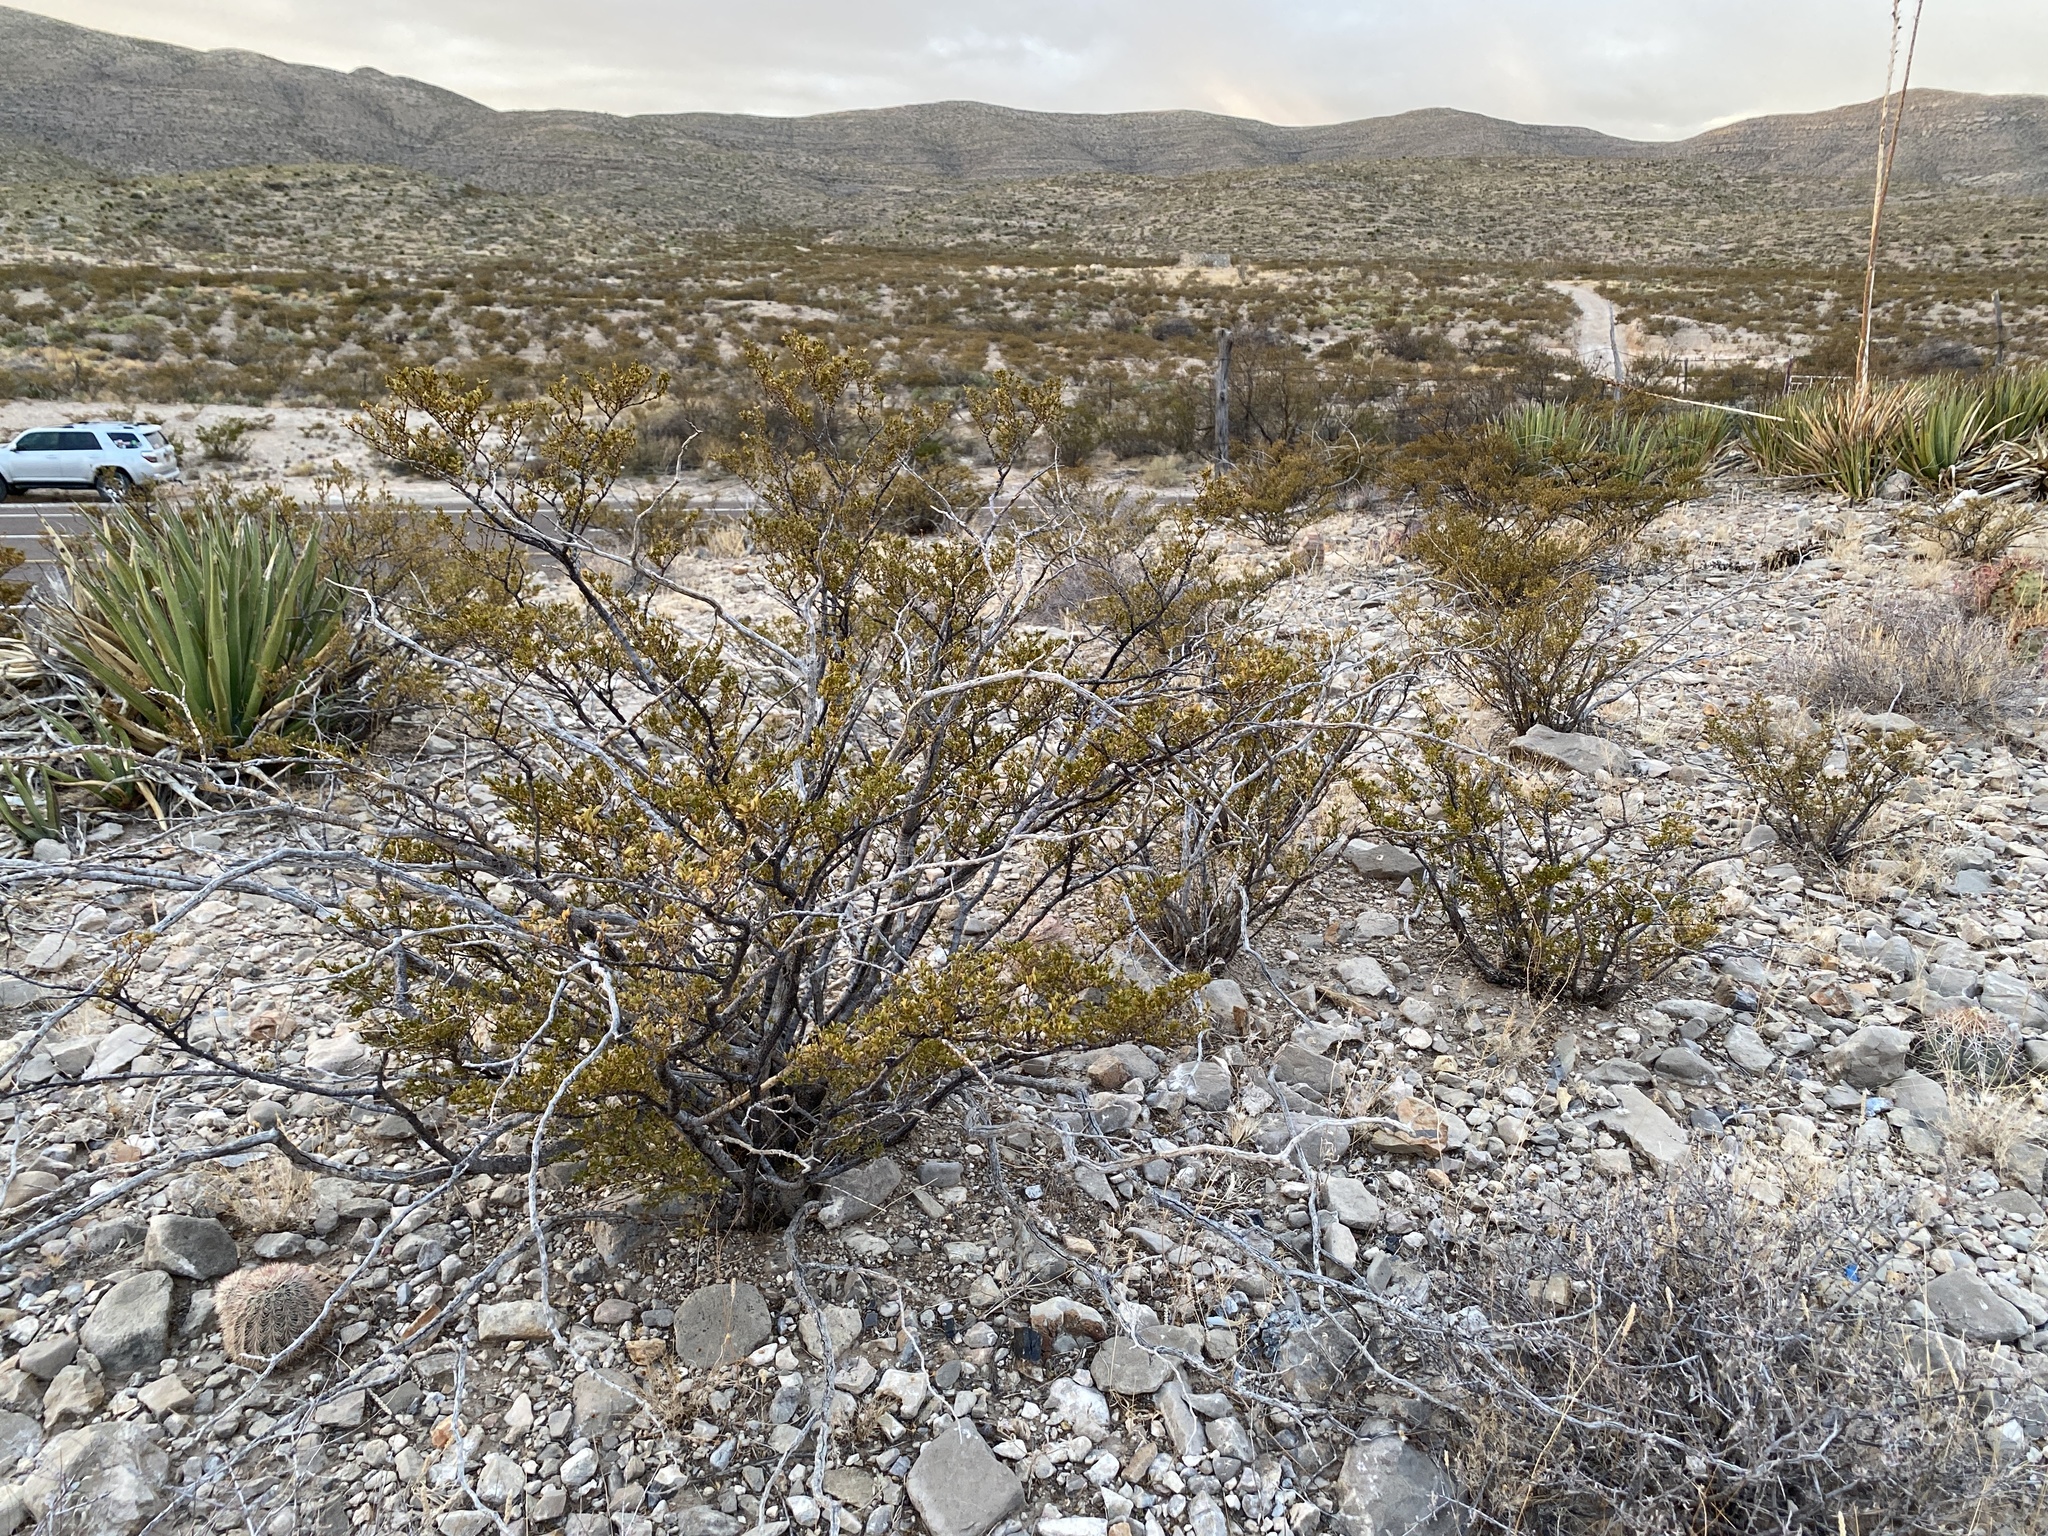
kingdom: Plantae
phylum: Tracheophyta
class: Magnoliopsida
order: Zygophyllales
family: Zygophyllaceae
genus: Larrea
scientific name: Larrea tridentata
